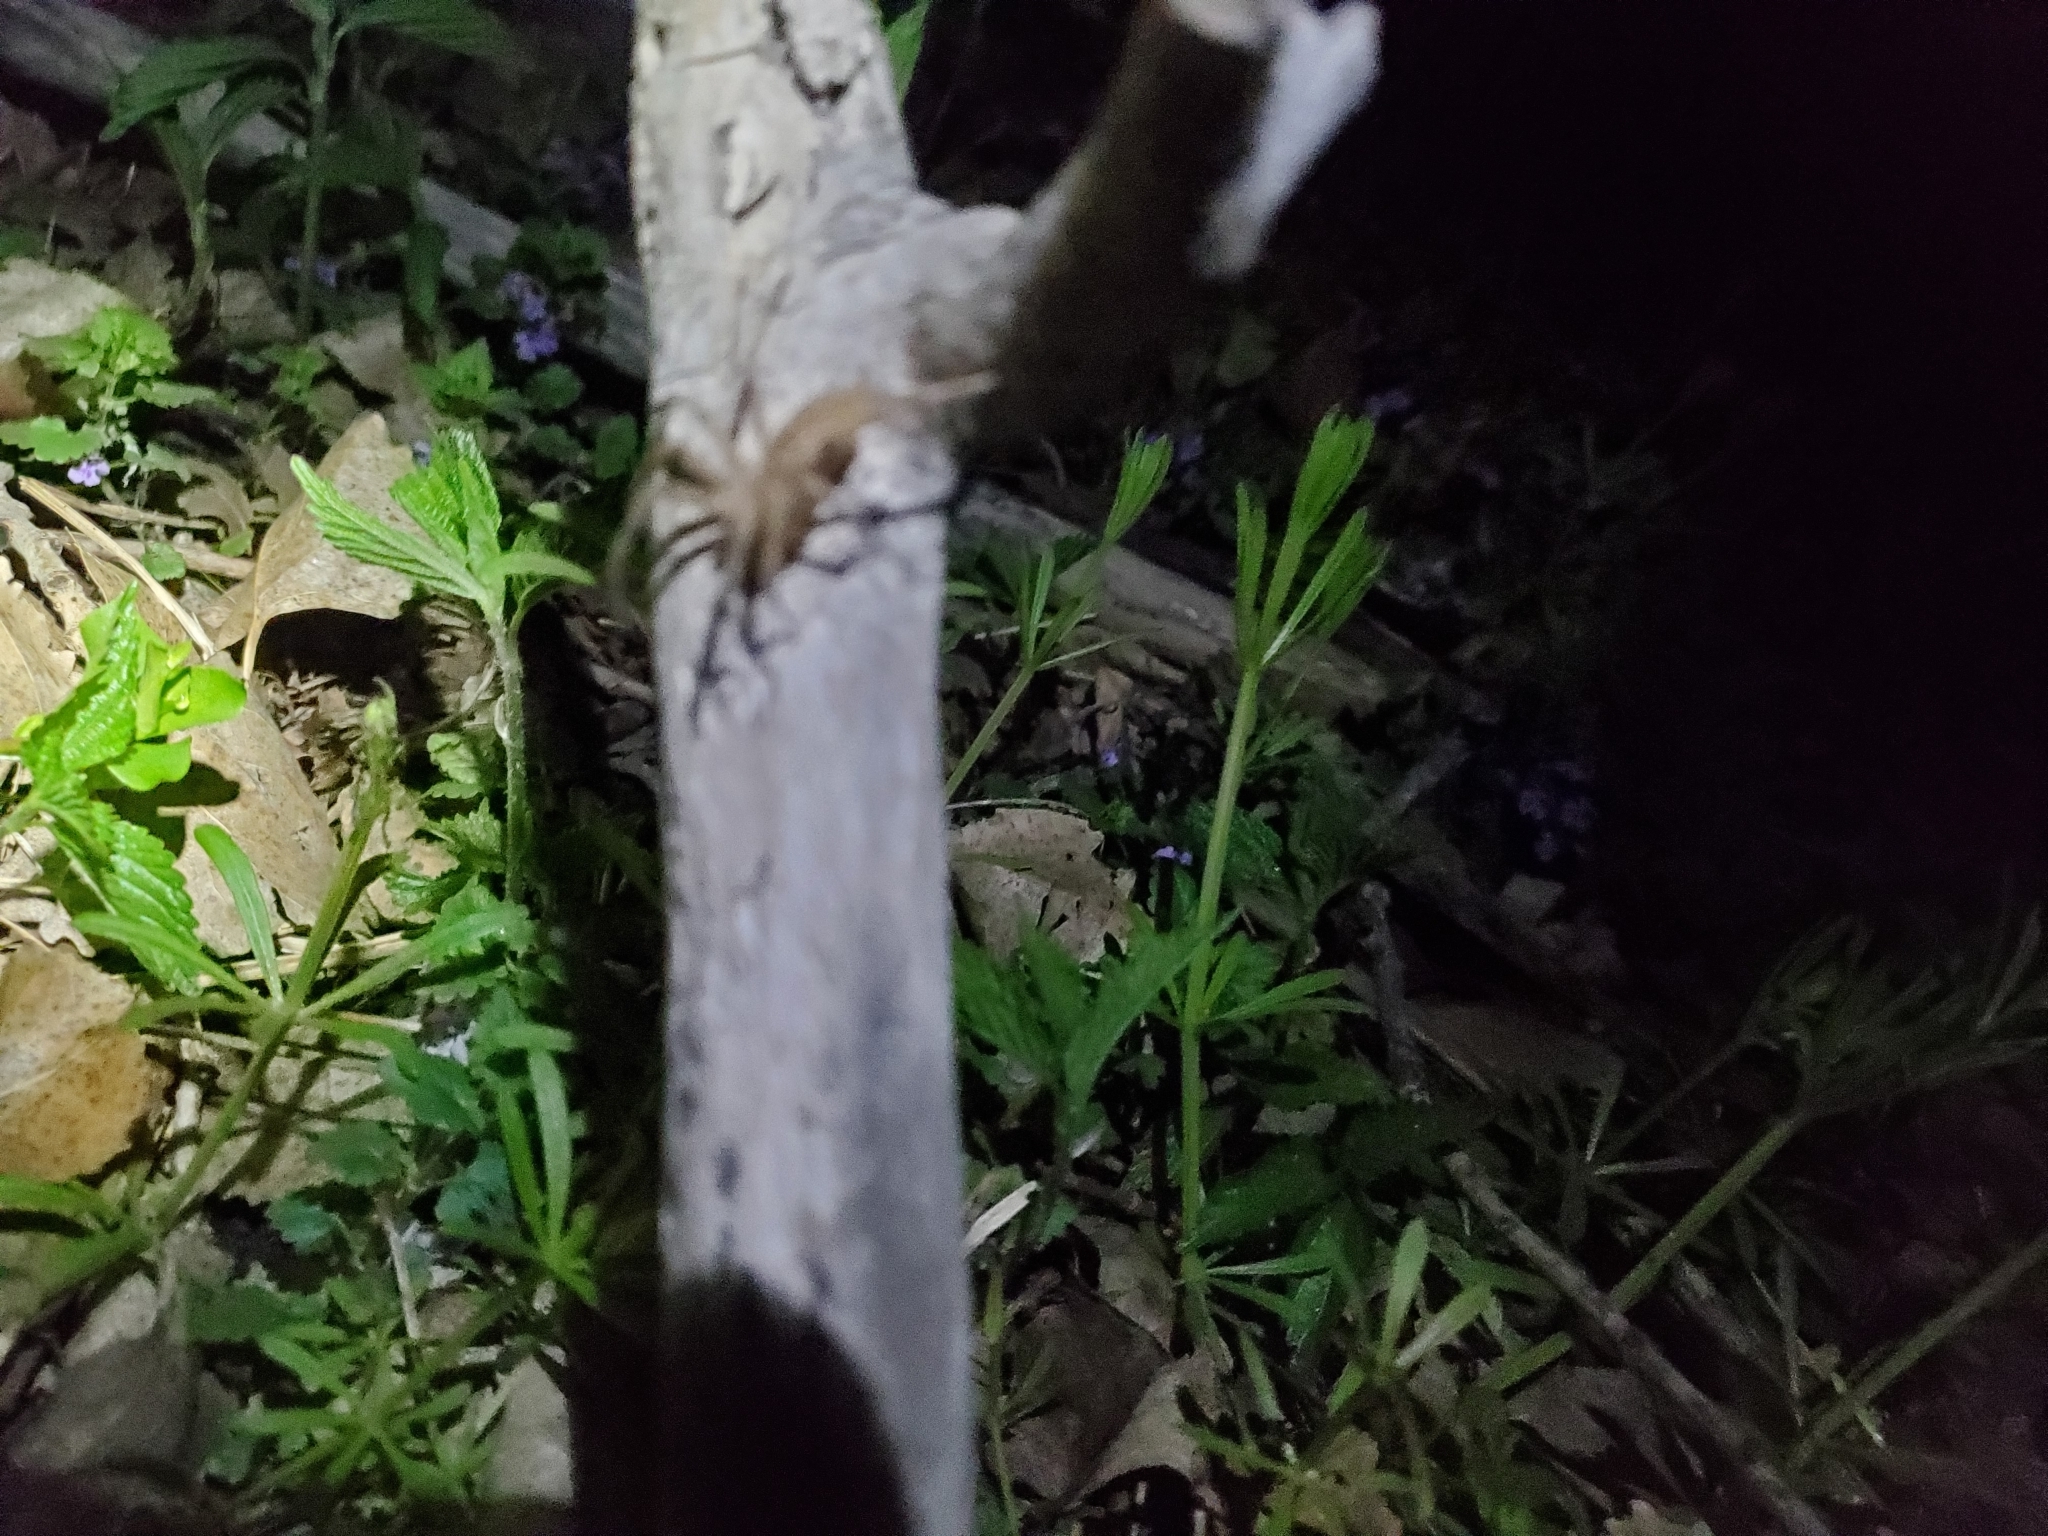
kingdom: Animalia
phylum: Arthropoda
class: Arachnida
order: Araneae
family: Pisauridae
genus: Pisaurina
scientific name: Pisaurina mira
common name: American nursery web spider
